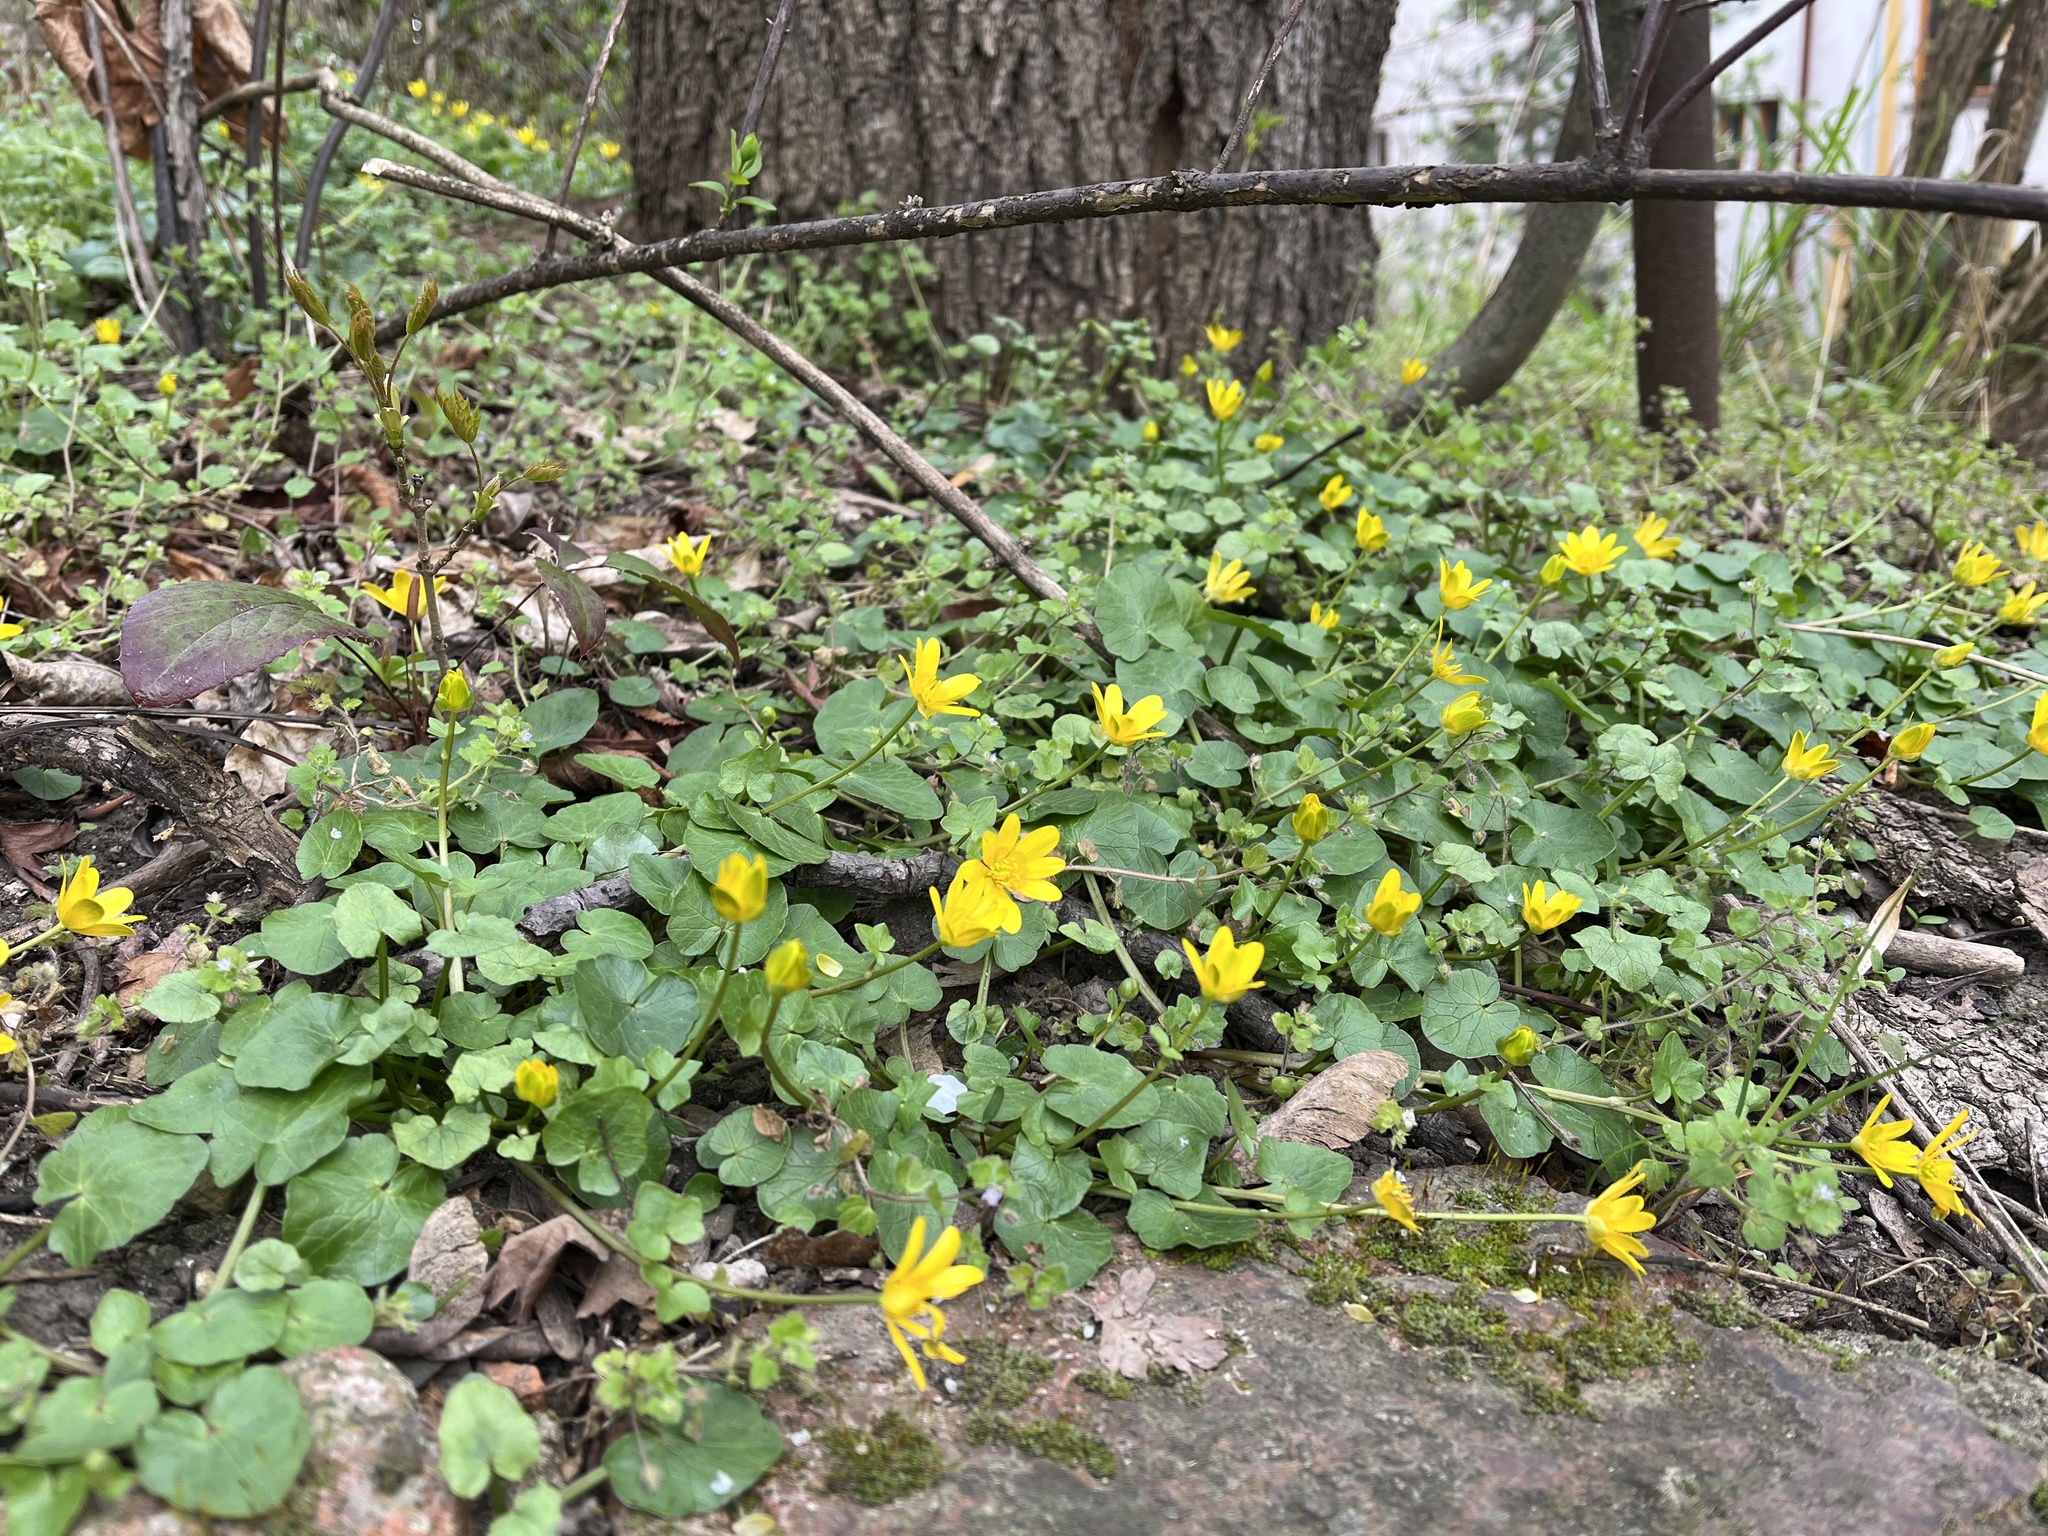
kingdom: Plantae
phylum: Tracheophyta
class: Magnoliopsida
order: Ranunculales
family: Ranunculaceae
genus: Ficaria
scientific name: Ficaria verna
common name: Lesser celandine
